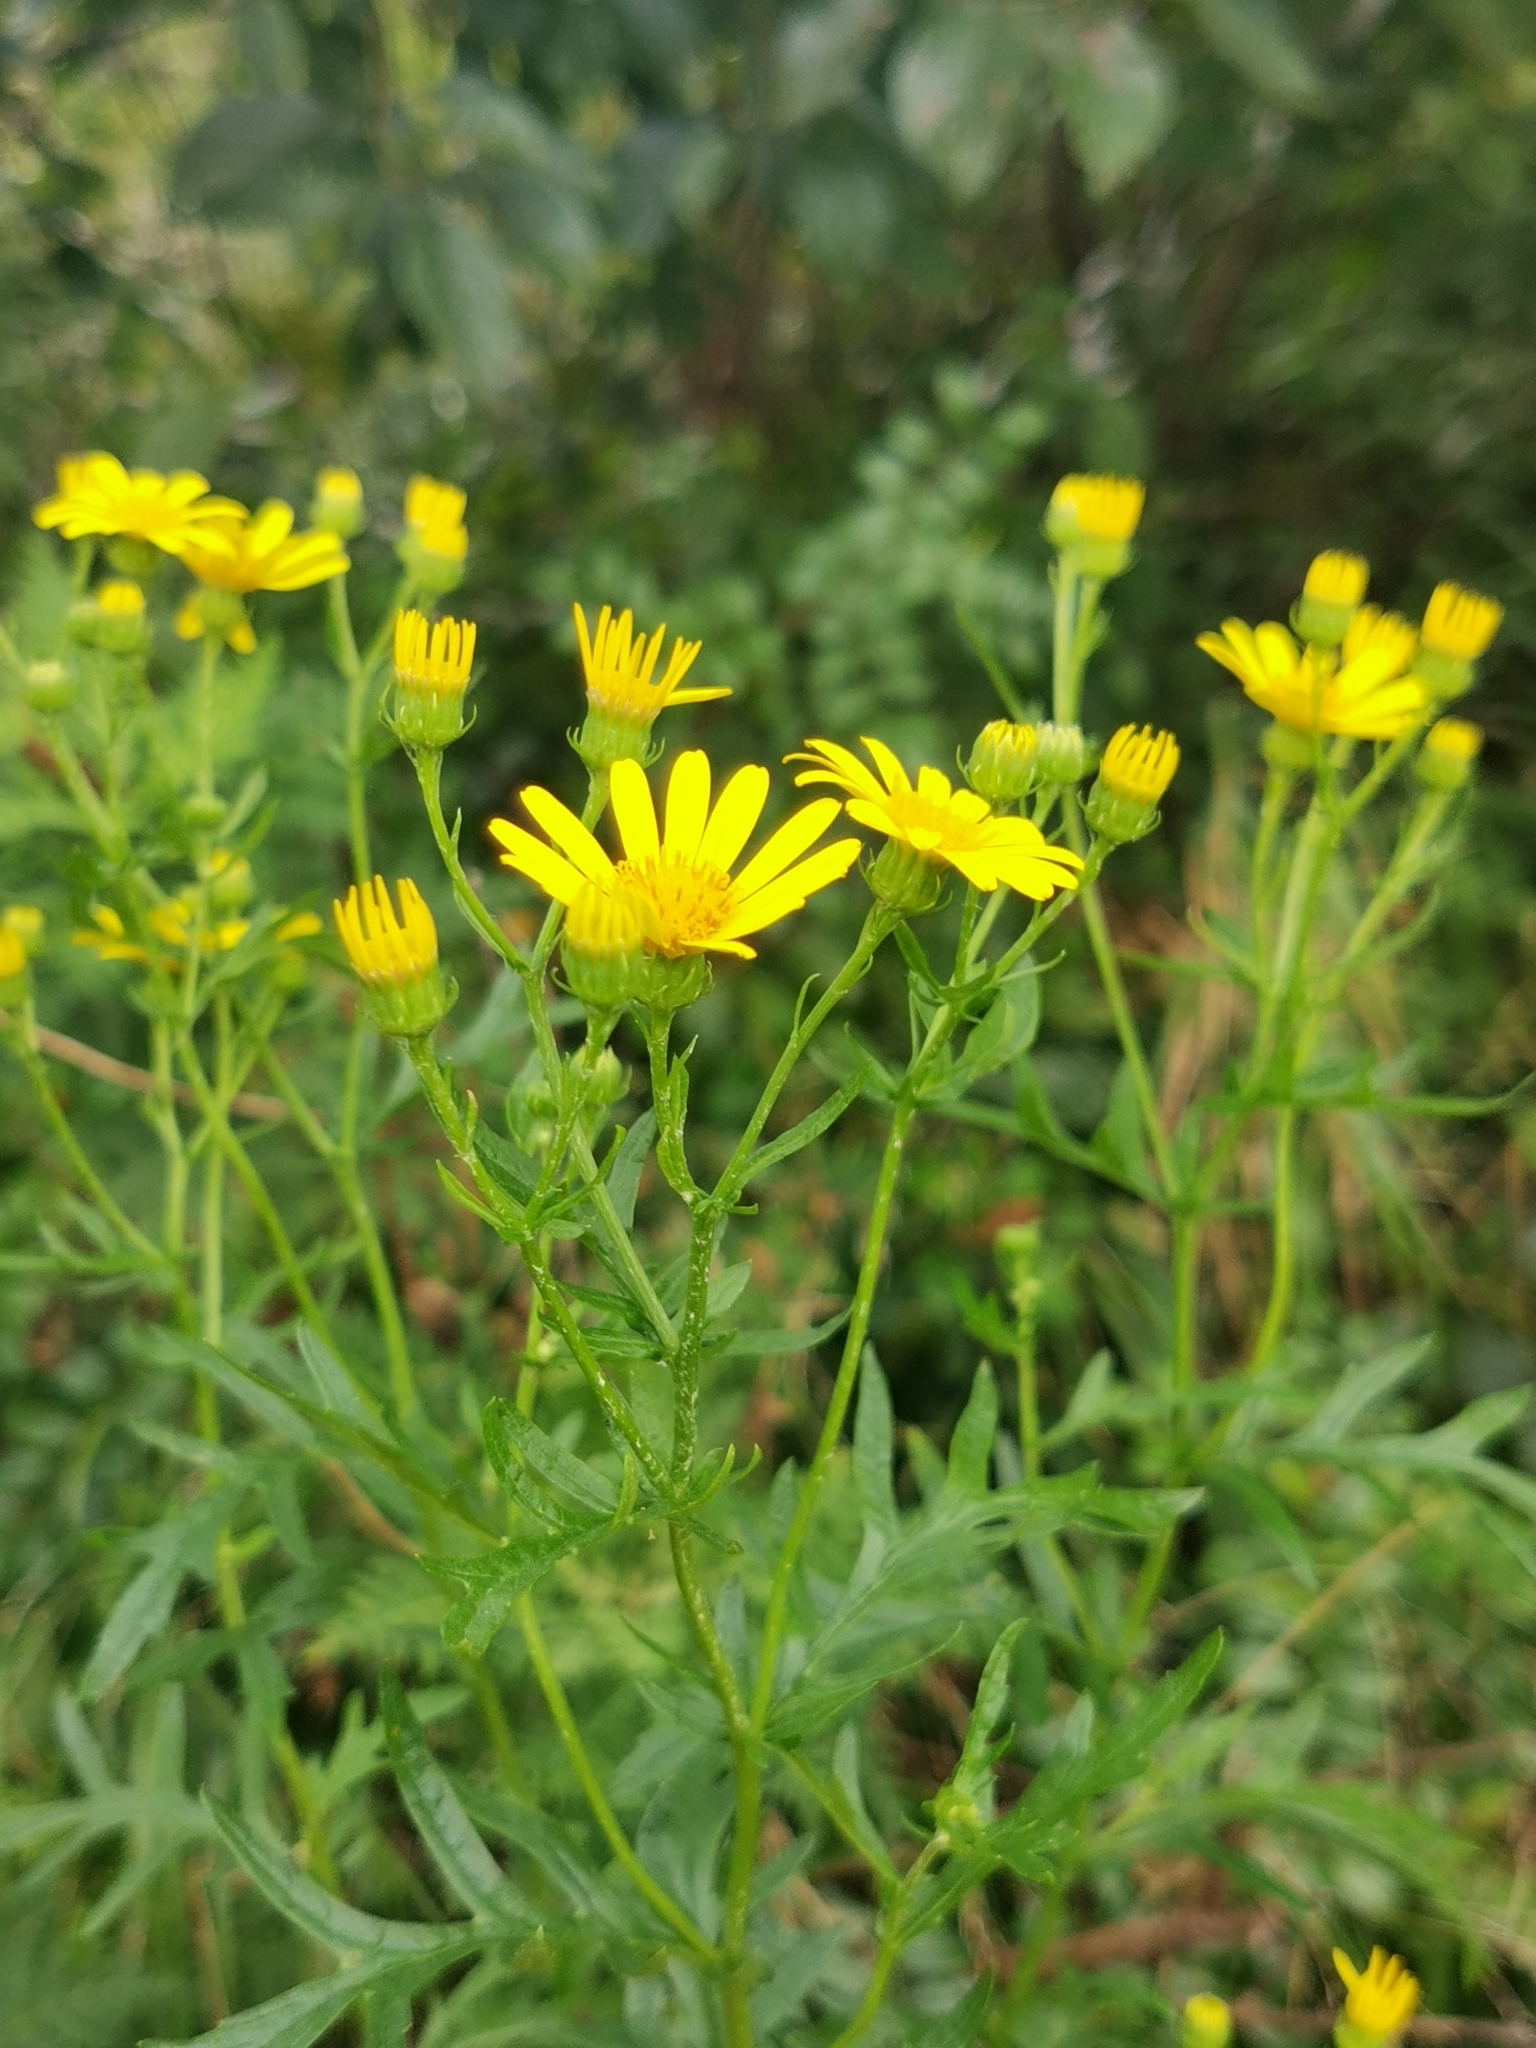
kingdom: Plantae
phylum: Tracheophyta
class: Magnoliopsida
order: Asterales
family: Asteraceae
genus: Jacobaea
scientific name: Jacobaea erucifolia
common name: Hoary ragwort
